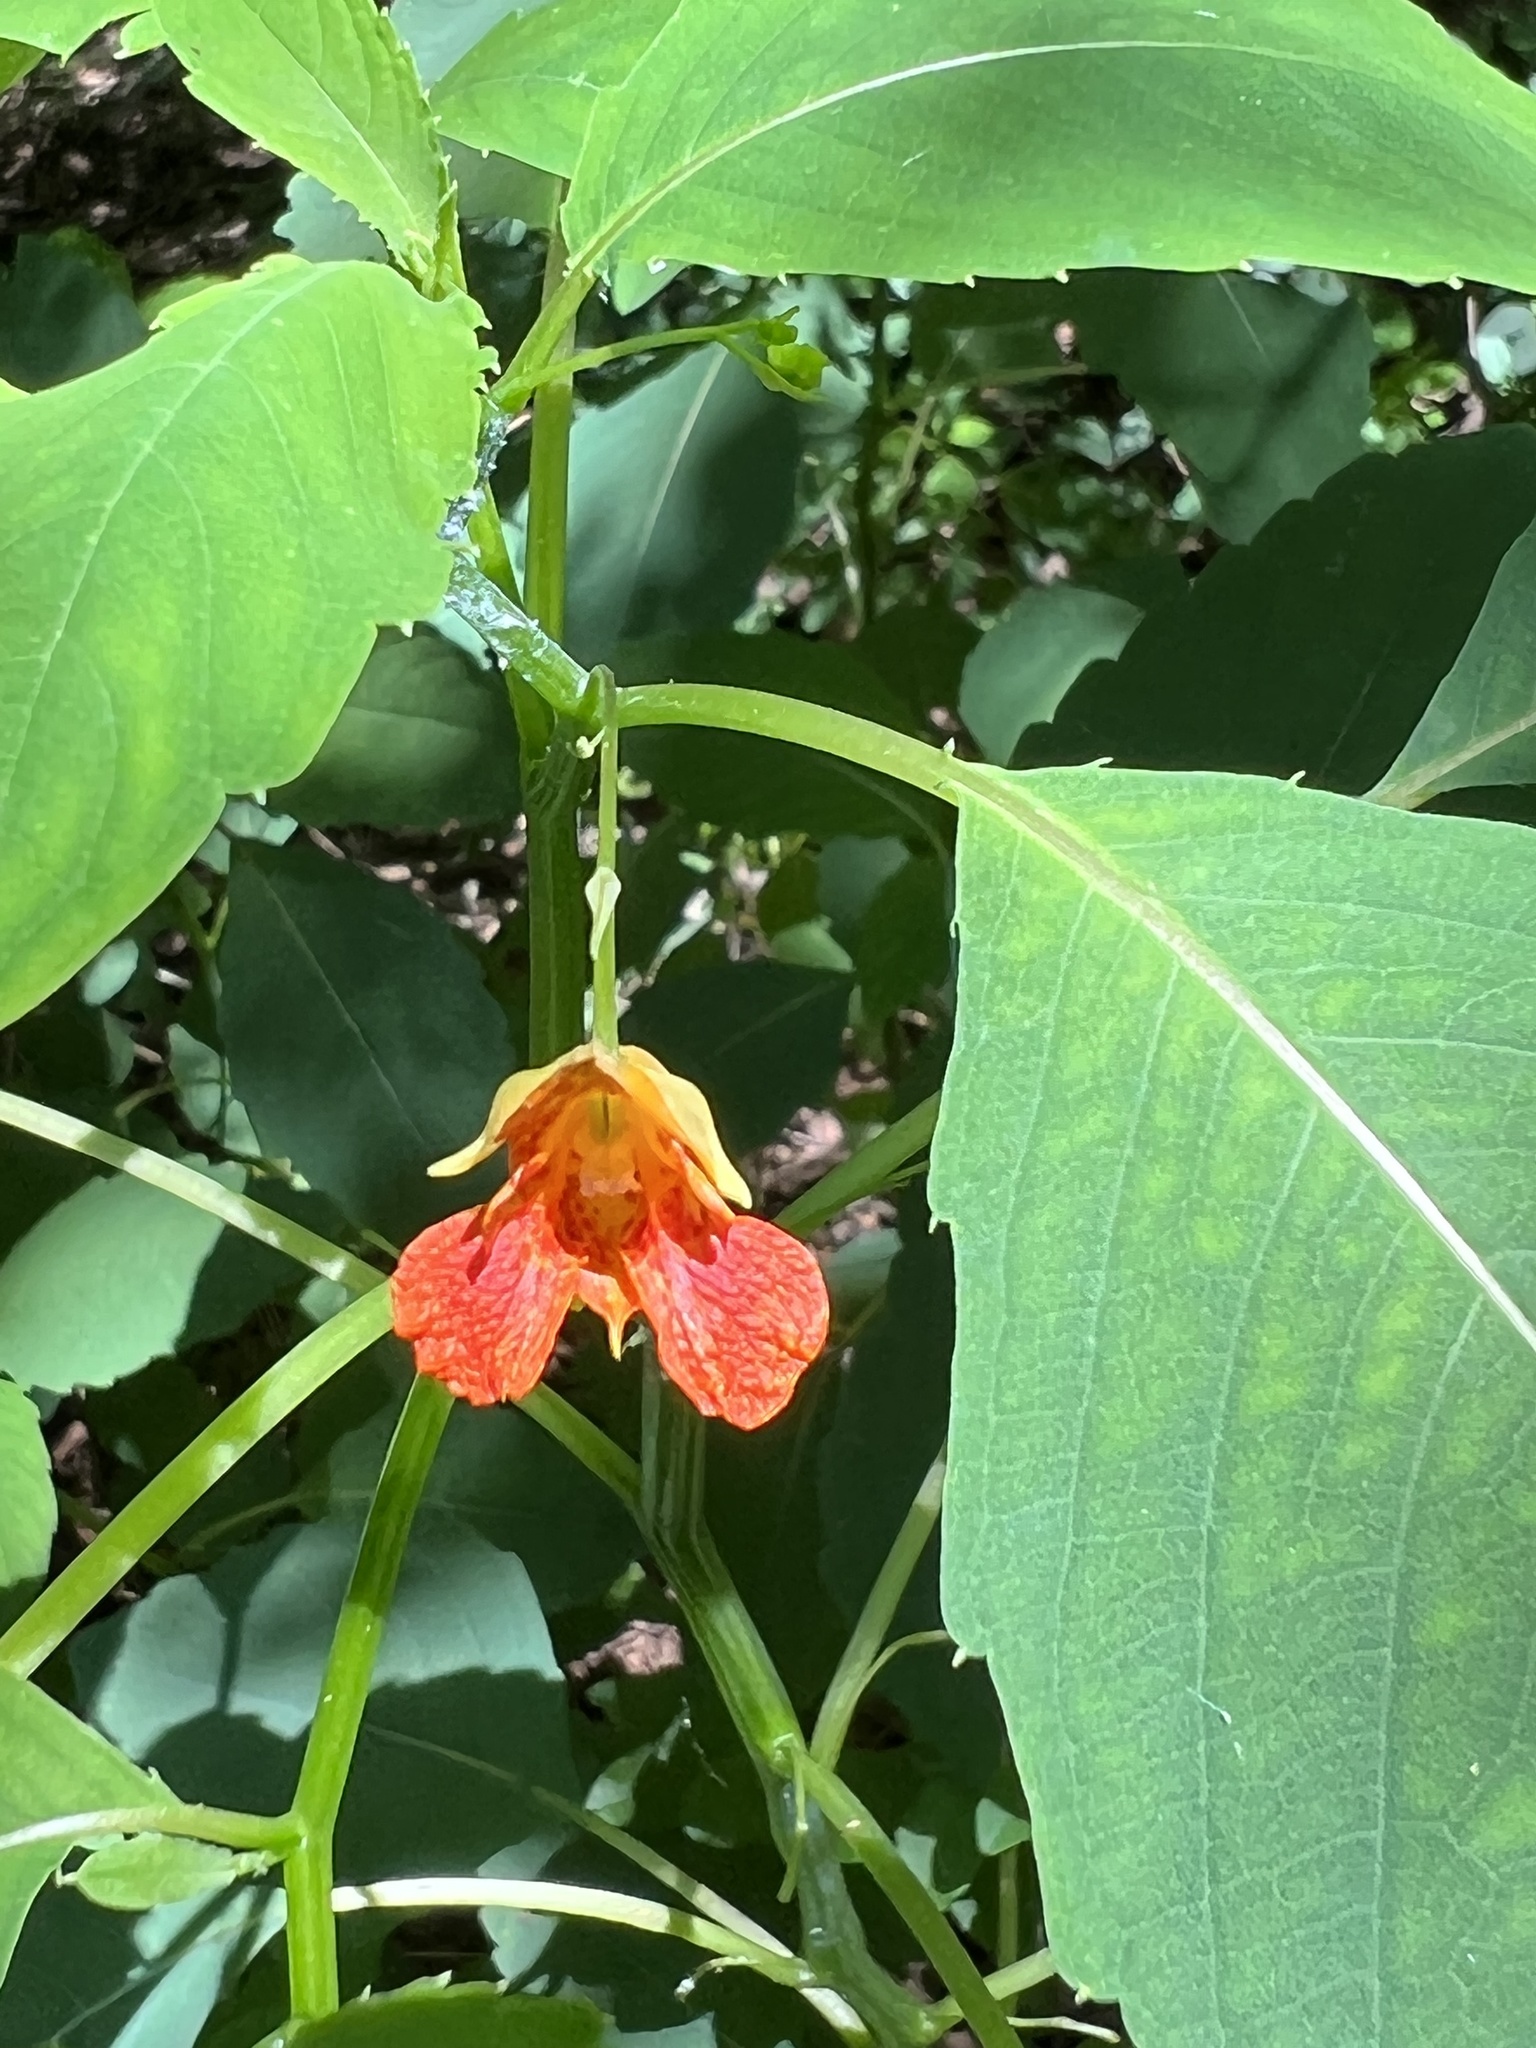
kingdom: Plantae
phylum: Tracheophyta
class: Magnoliopsida
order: Ericales
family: Balsaminaceae
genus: Impatiens
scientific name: Impatiens capensis
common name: Orange balsam
